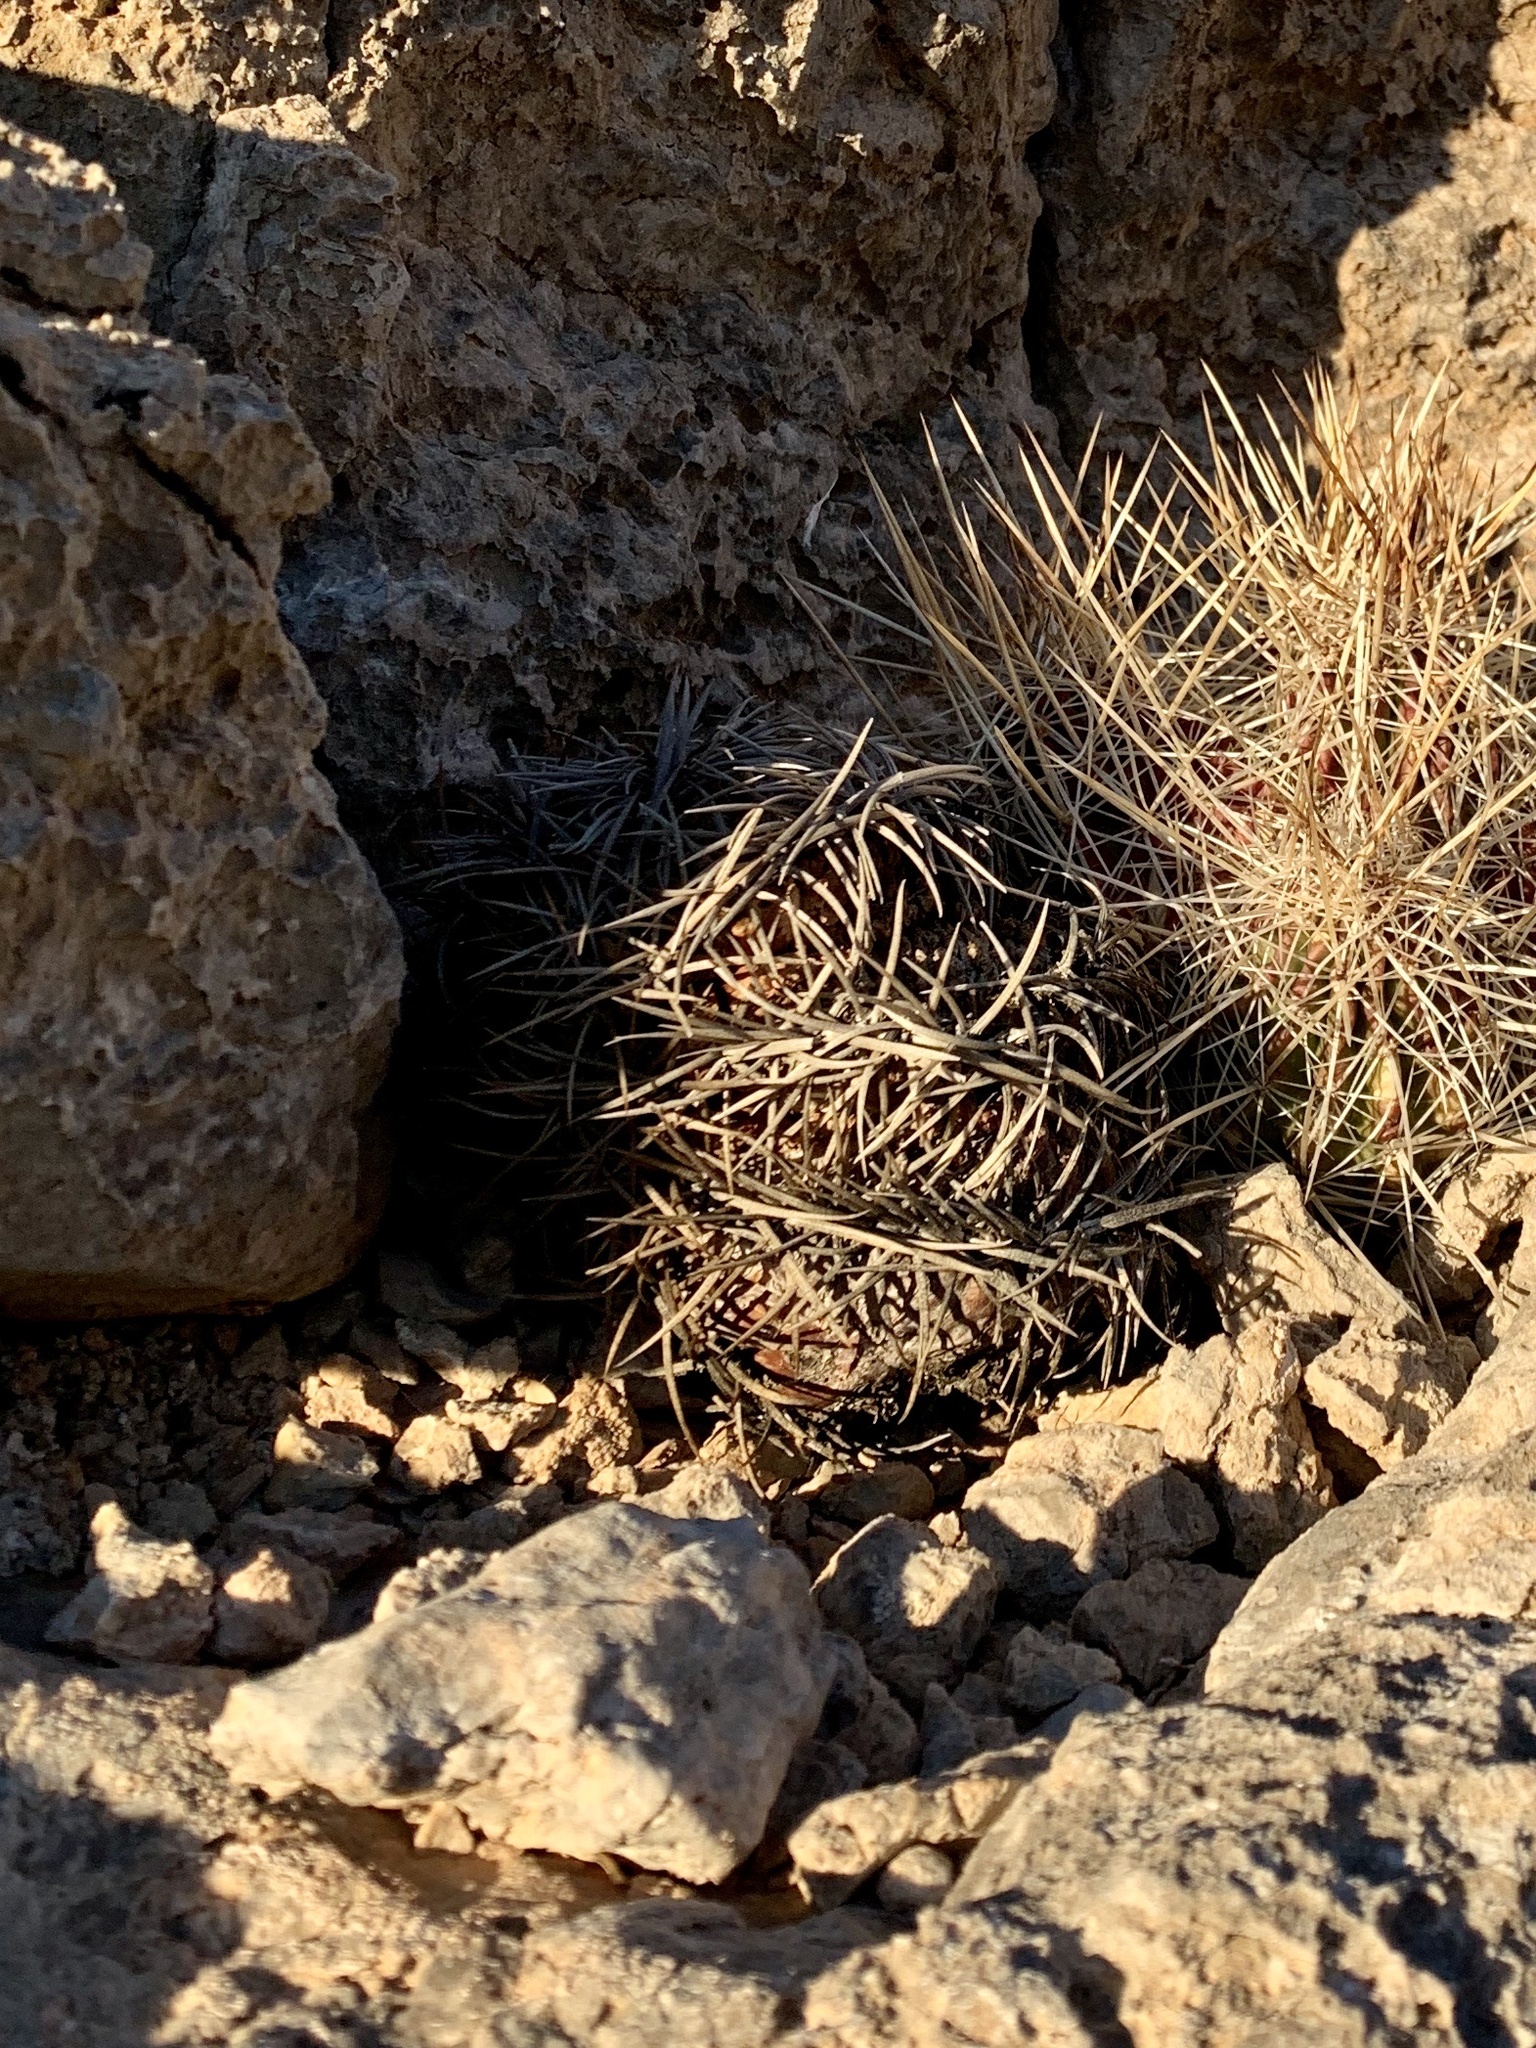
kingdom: Plantae
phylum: Tracheophyta
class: Magnoliopsida
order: Caryophyllales
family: Cactaceae
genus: Echinocactus
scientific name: Echinocactus horizonthalonius
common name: Devilshead
